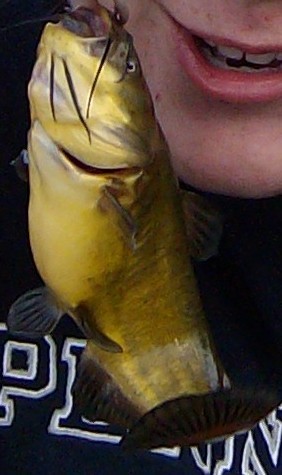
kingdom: Animalia
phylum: Chordata
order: Siluriformes
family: Ictaluridae
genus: Ameiurus
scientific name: Ameiurus melas
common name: Black bullhead
